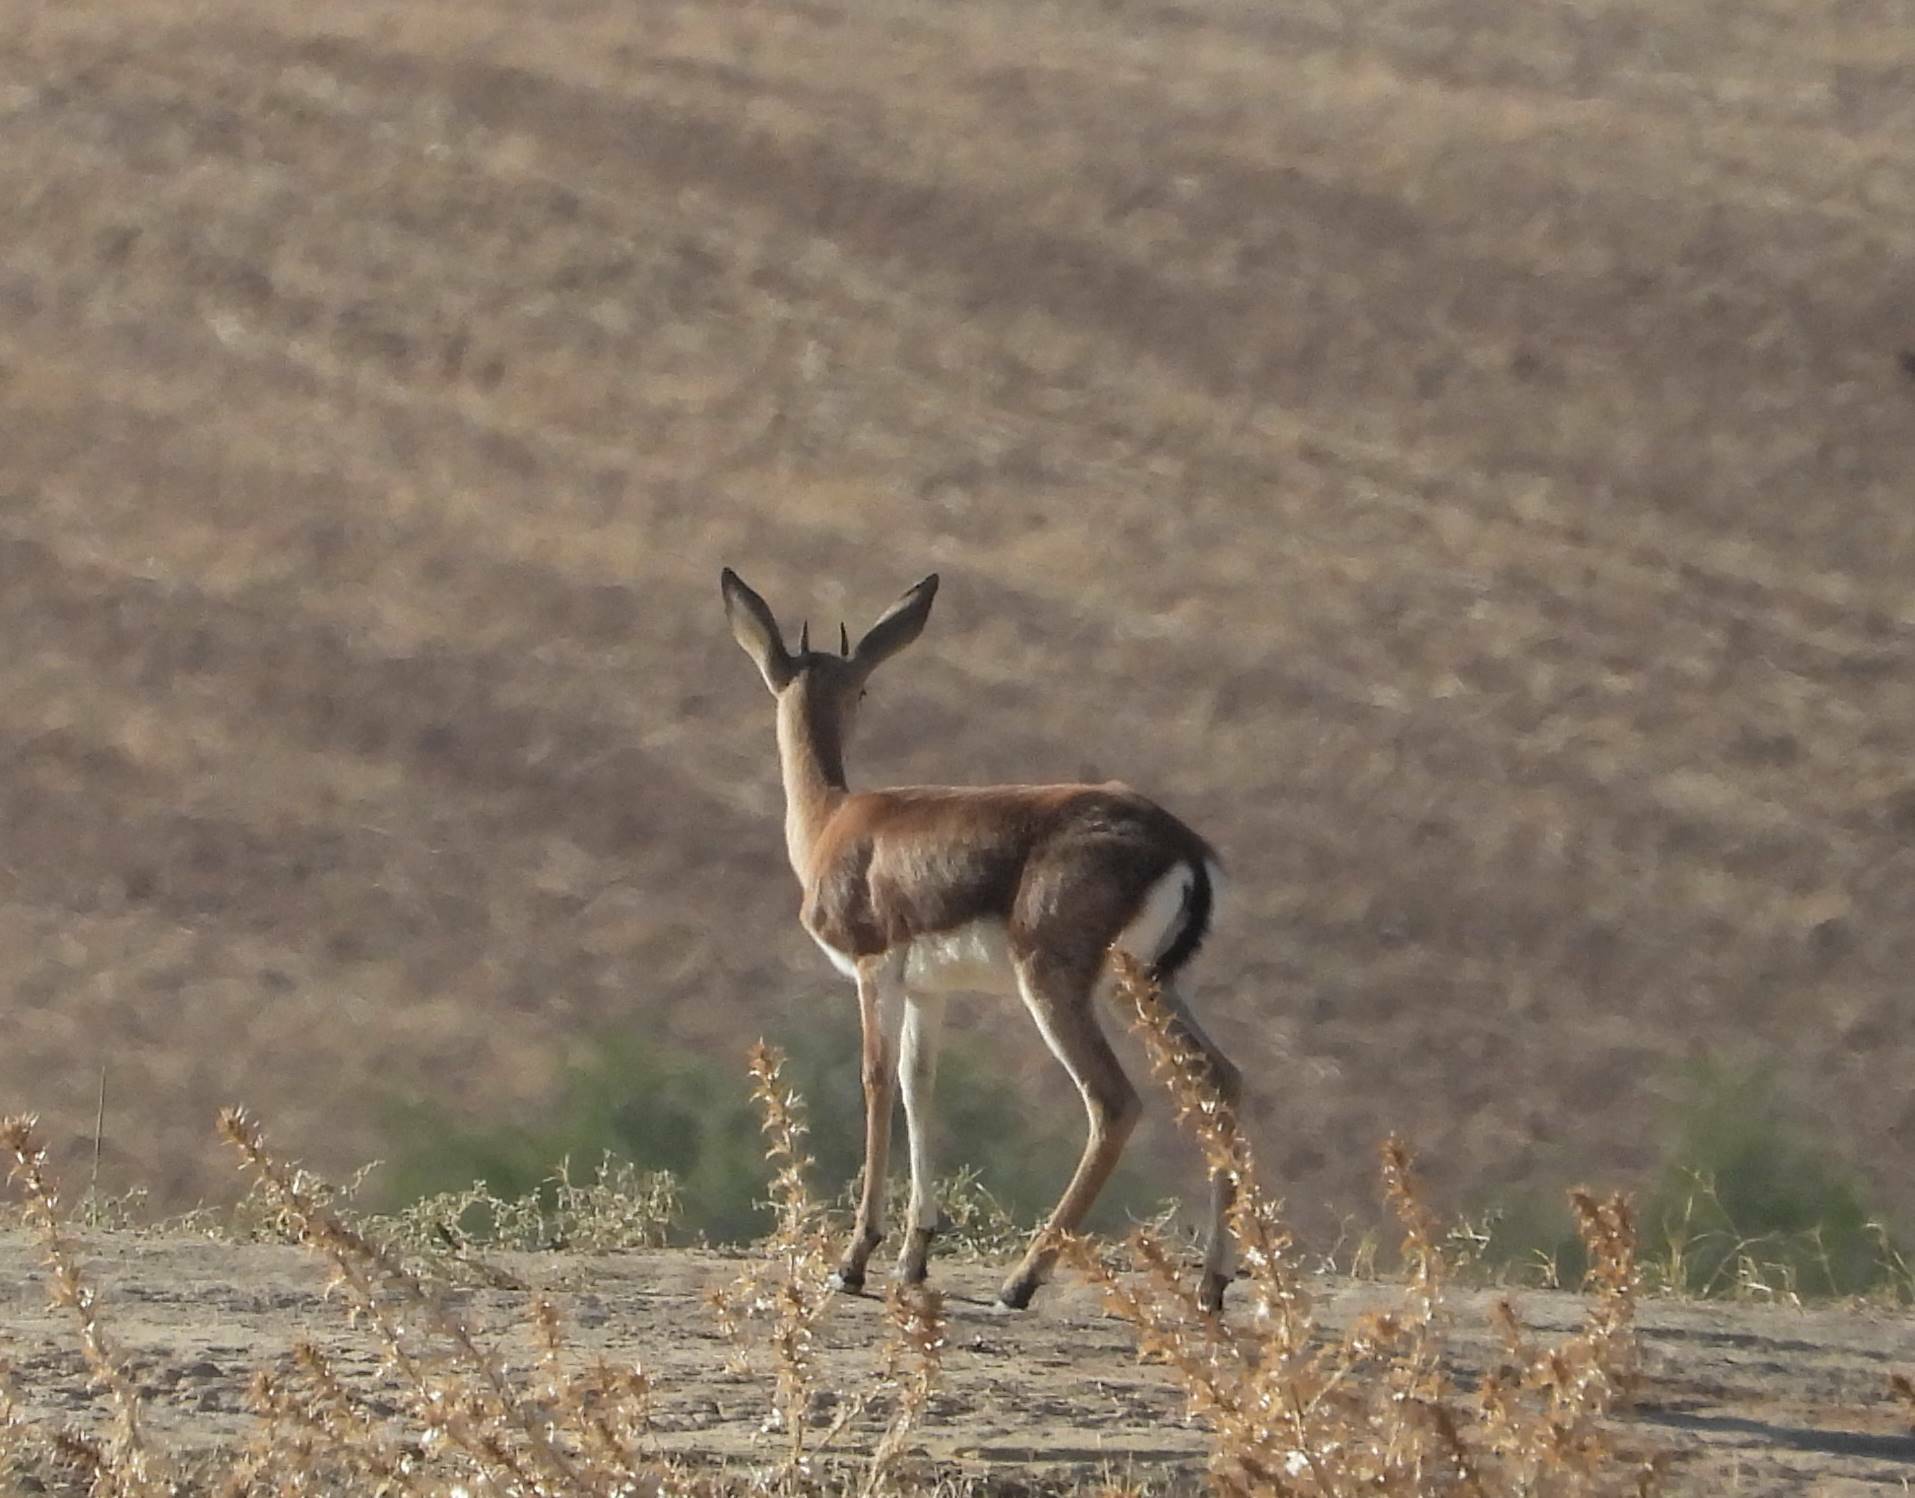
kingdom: Animalia
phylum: Chordata
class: Mammalia
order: Artiodactyla
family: Bovidae
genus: Gazella
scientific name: Gazella cuvieri
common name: Cuvier's gazelle
